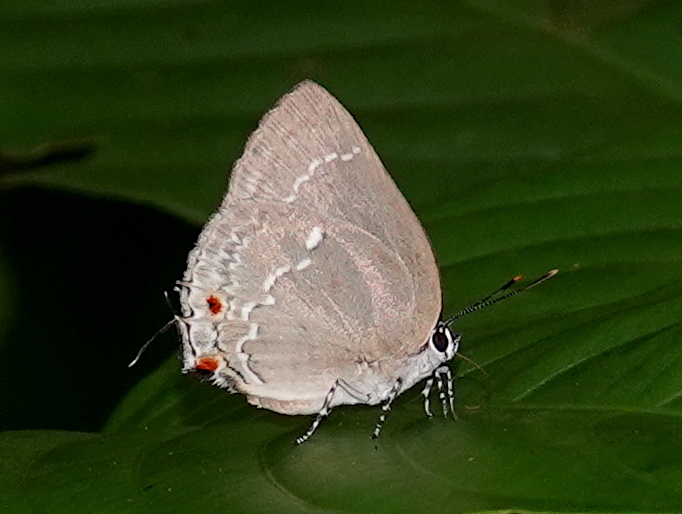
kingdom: Animalia
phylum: Arthropoda
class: Insecta
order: Lepidoptera
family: Lycaenidae
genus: Thecla
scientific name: Thecla ambrax
